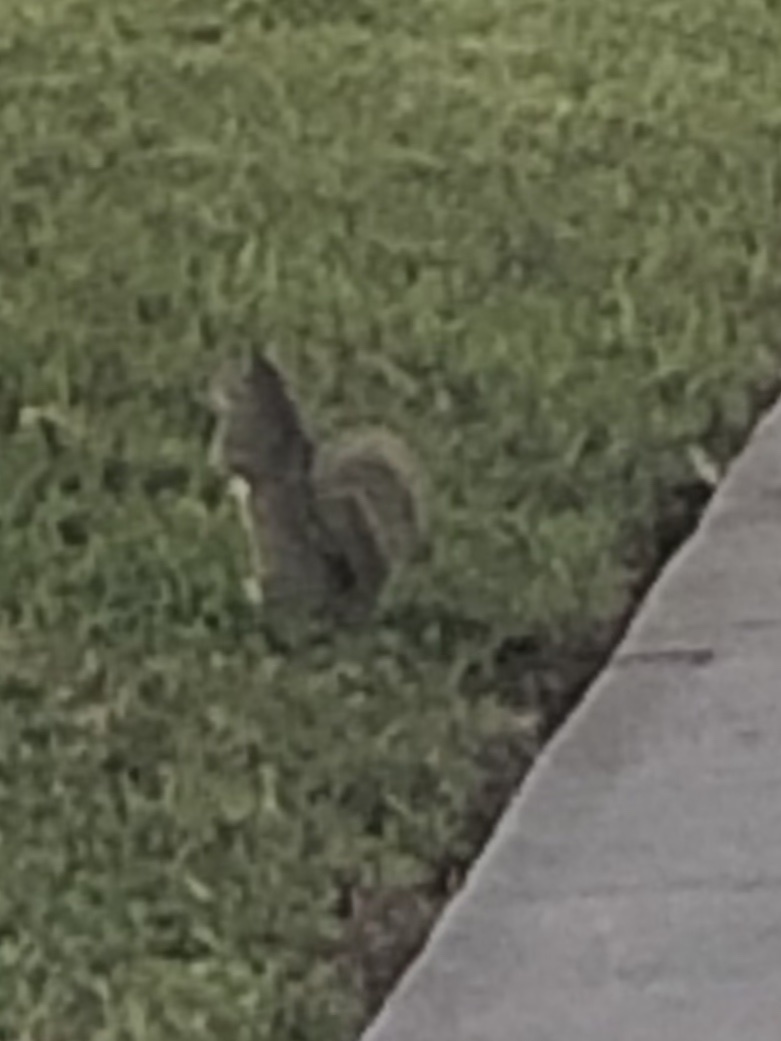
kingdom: Animalia
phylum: Chordata
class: Mammalia
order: Rodentia
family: Sciuridae
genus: Sciurus
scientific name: Sciurus carolinensis
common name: Eastern gray squirrel
